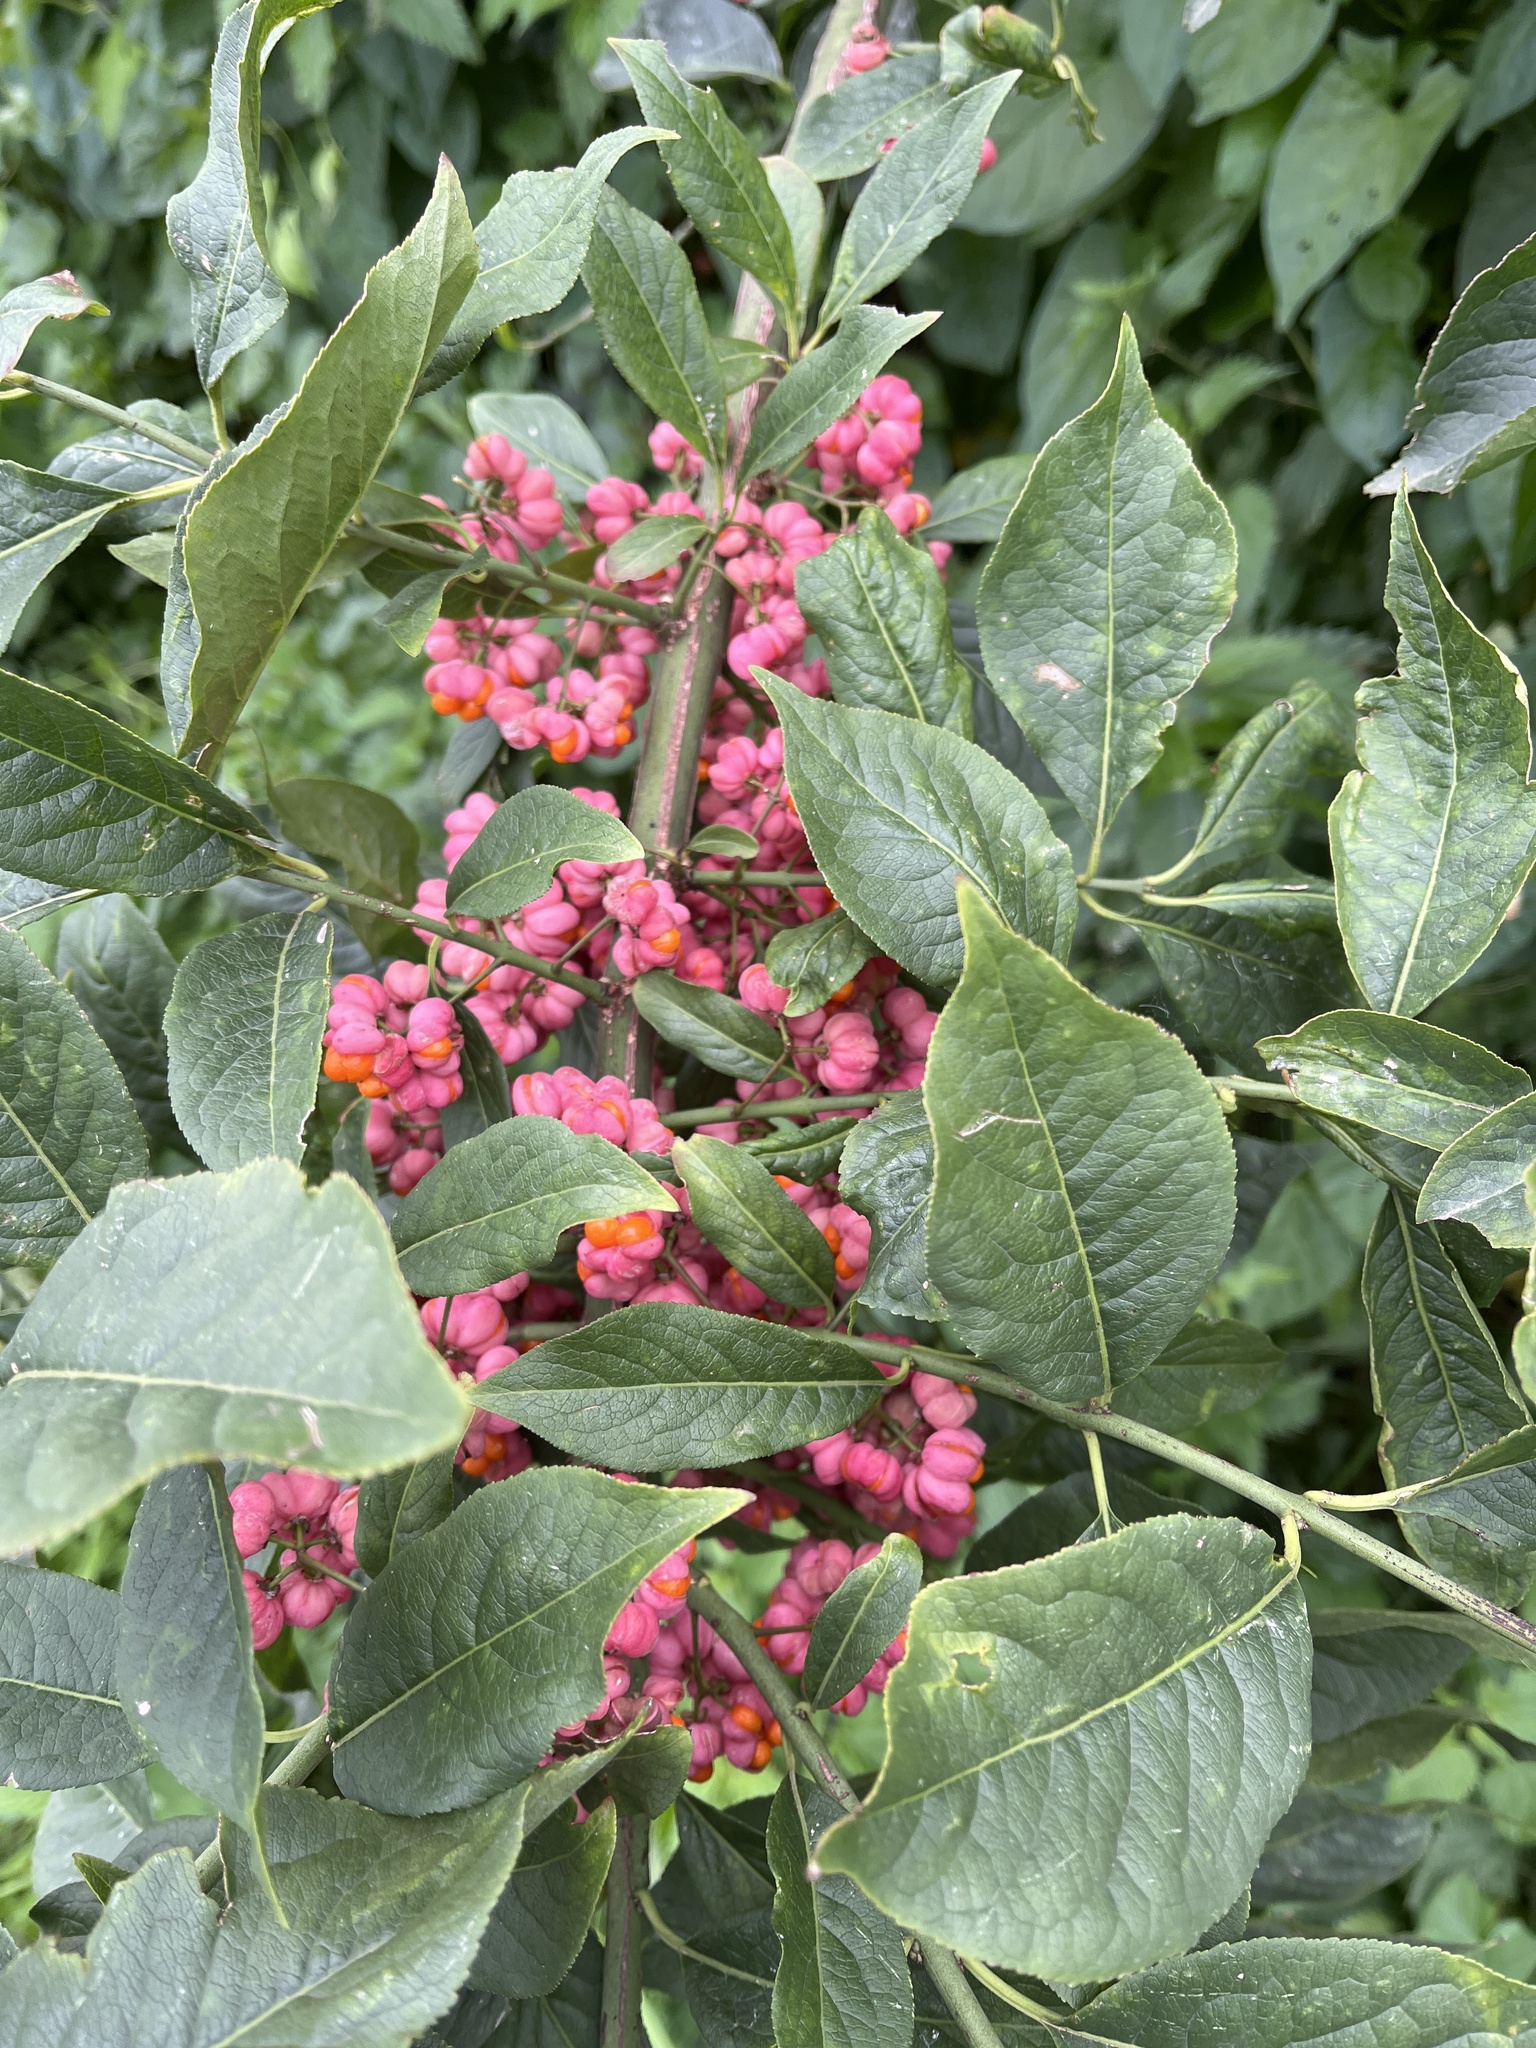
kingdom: Plantae
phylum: Tracheophyta
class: Magnoliopsida
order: Celastrales
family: Celastraceae
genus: Euonymus
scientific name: Euonymus europaeus
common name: Spindle
